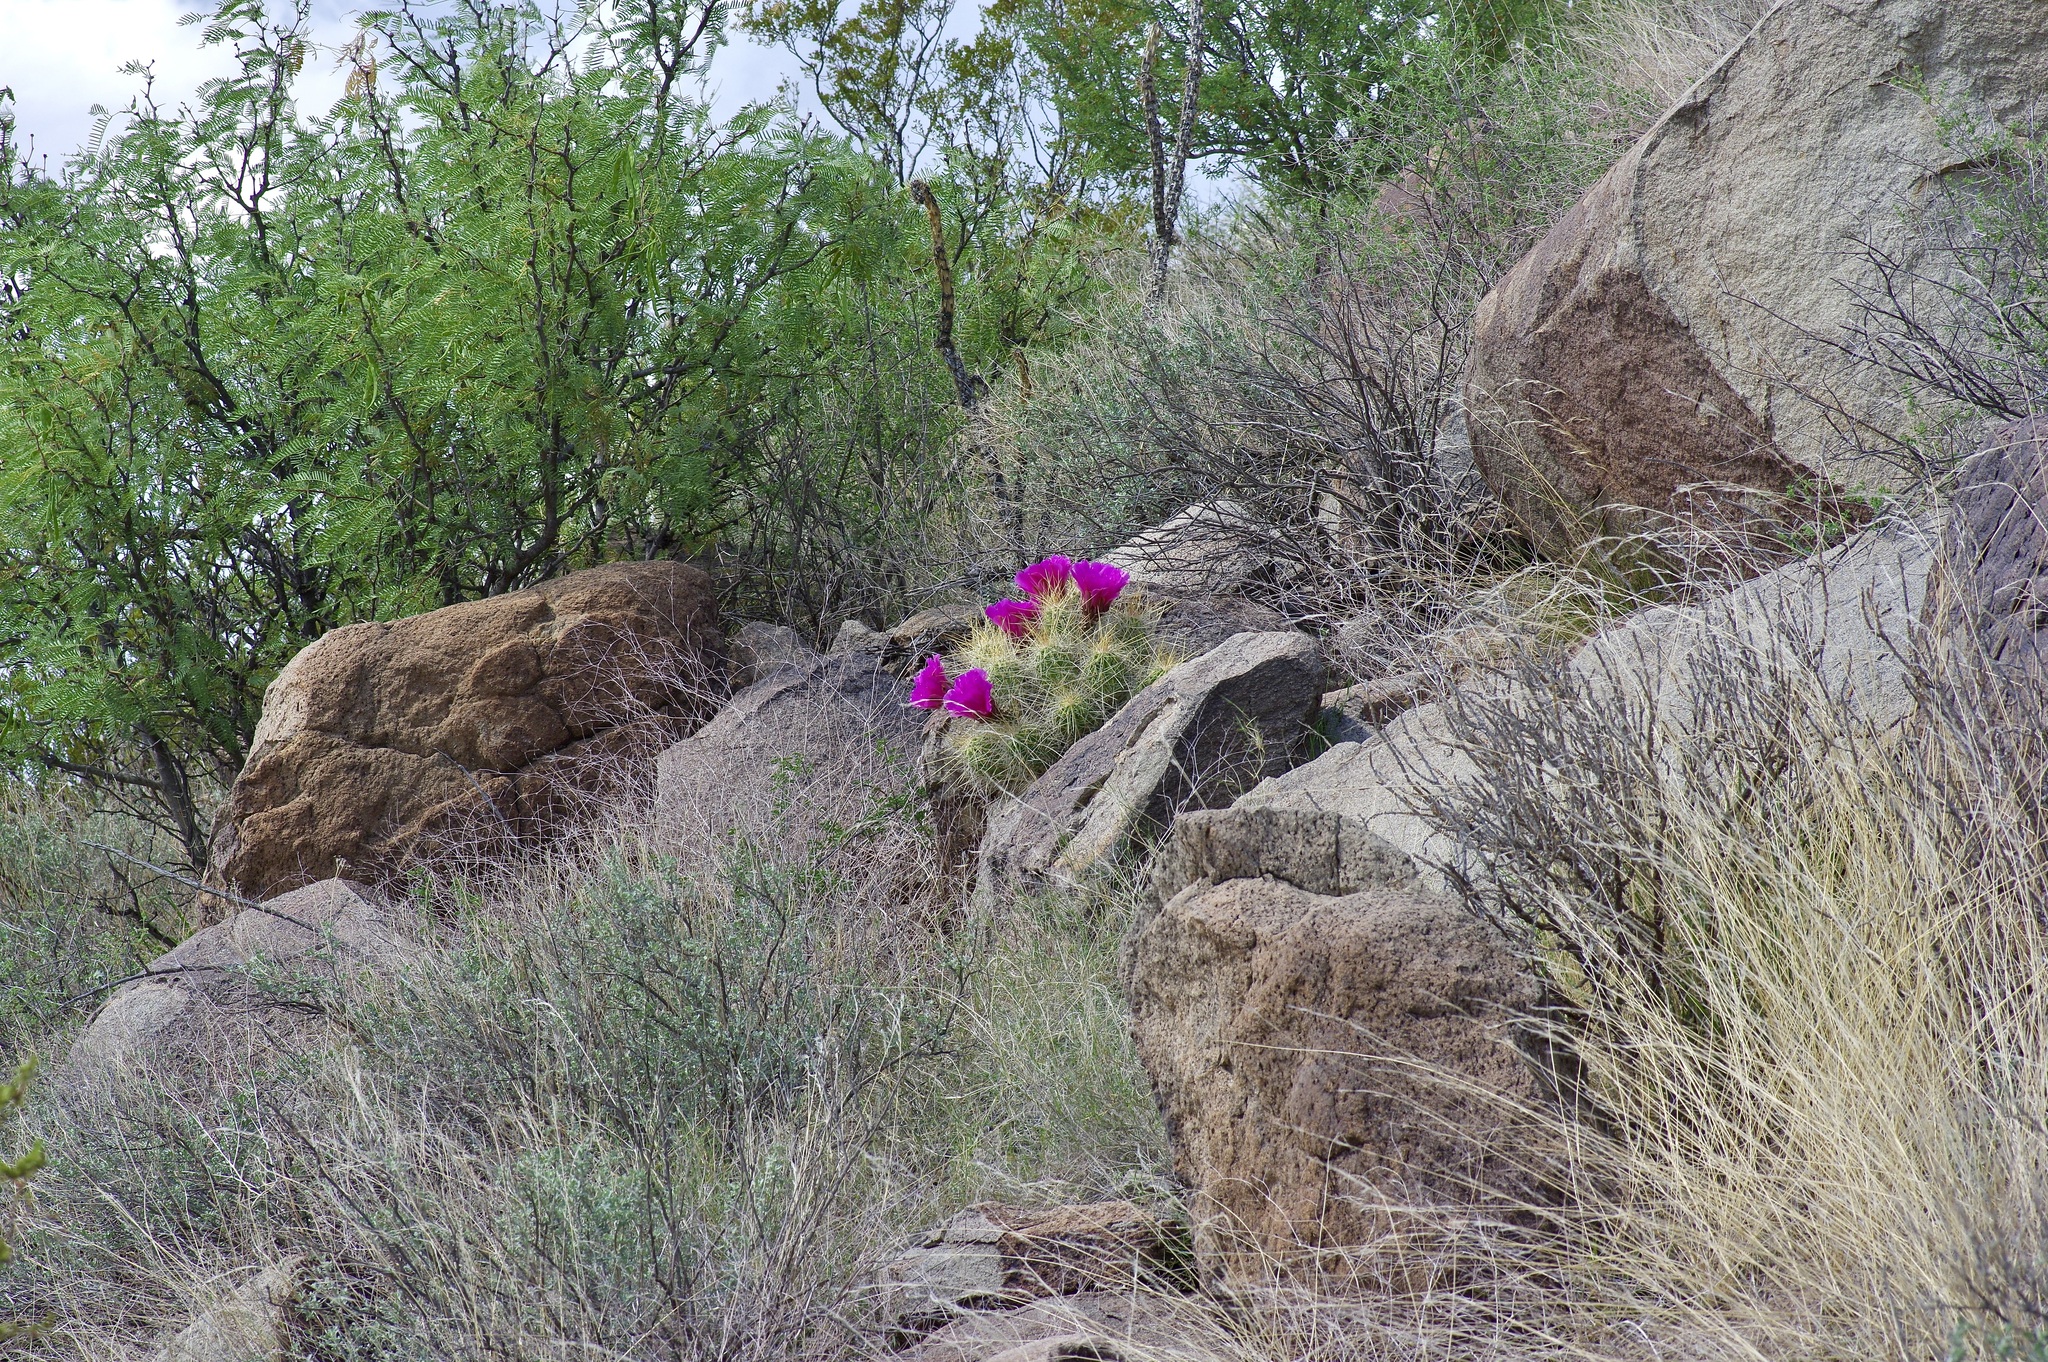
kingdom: Plantae
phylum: Tracheophyta
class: Magnoliopsida
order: Caryophyllales
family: Cactaceae
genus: Echinocereus
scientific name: Echinocereus stramineus
